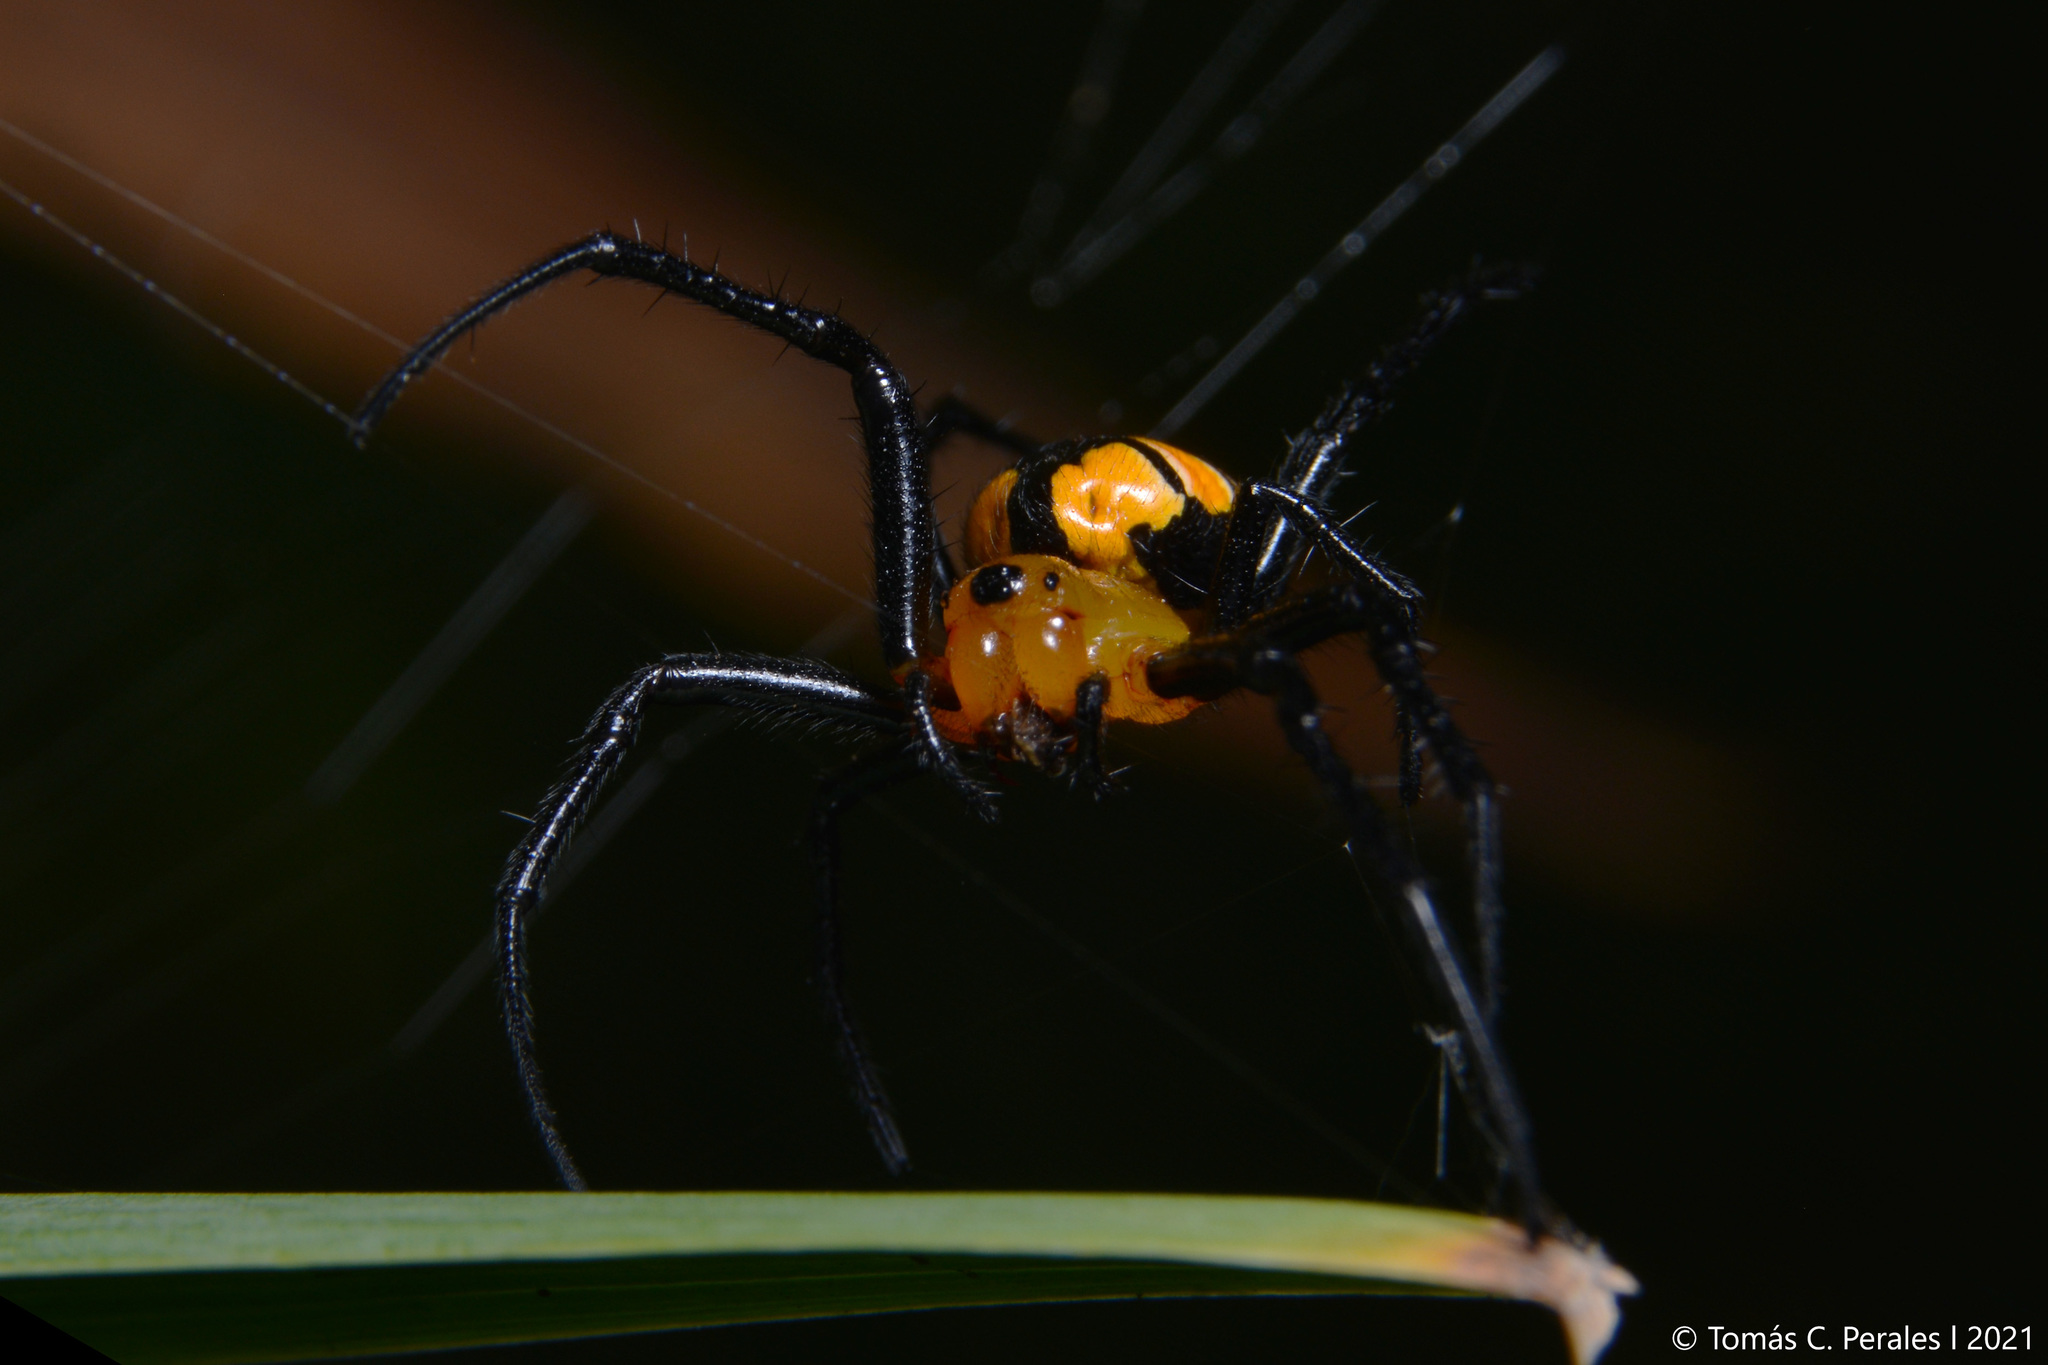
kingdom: Animalia
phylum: Arthropoda
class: Arachnida
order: Araneae
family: Araneidae
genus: Alpaida
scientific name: Alpaida latro
